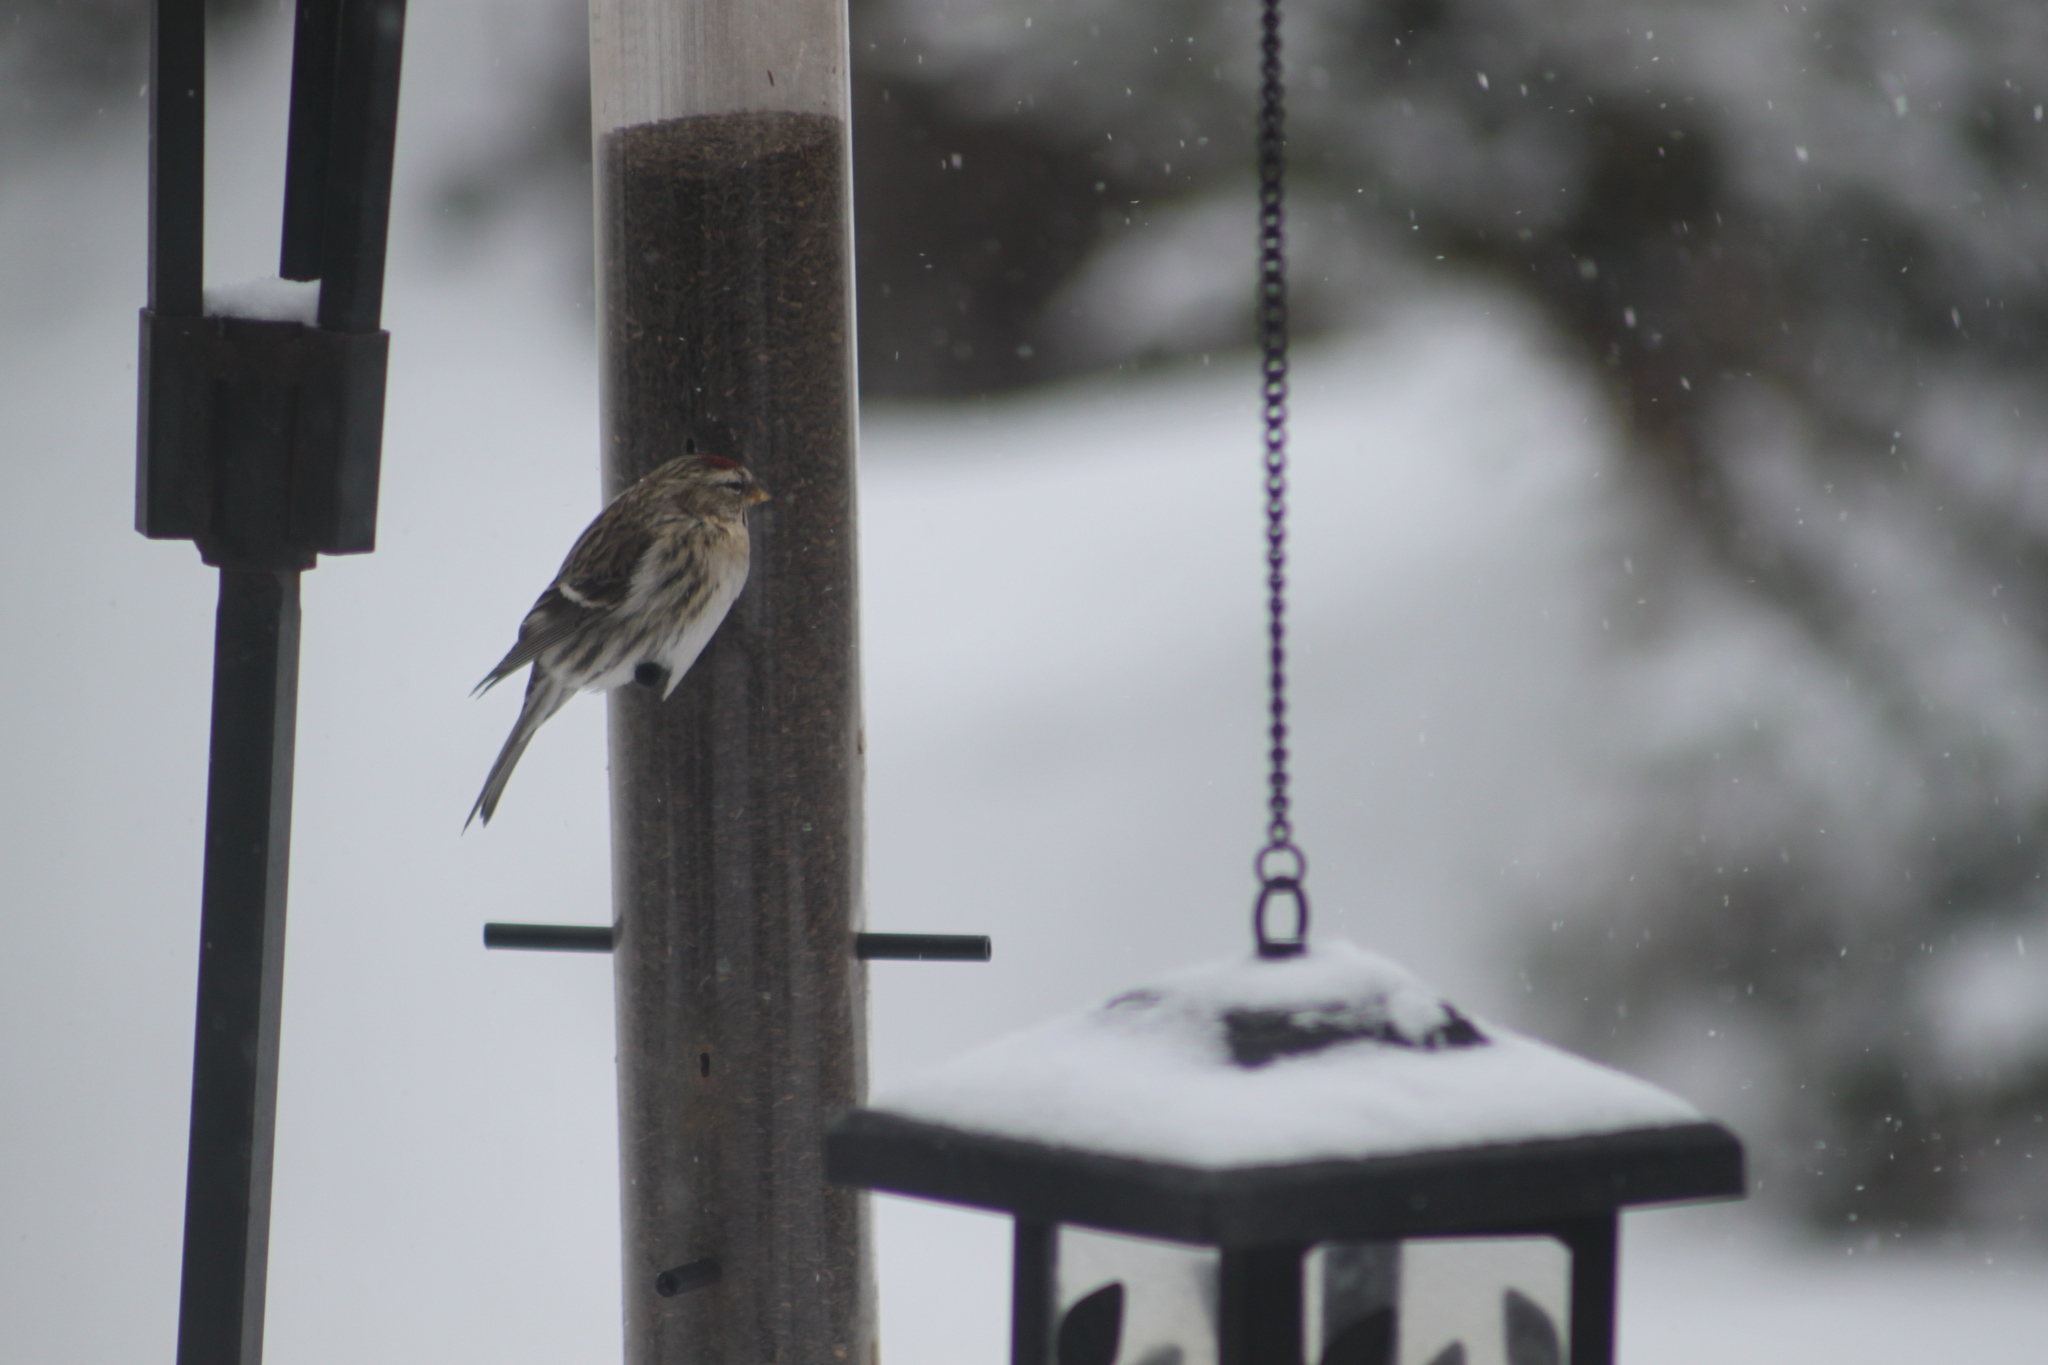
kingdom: Animalia
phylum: Chordata
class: Aves
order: Passeriformes
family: Fringillidae
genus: Acanthis
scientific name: Acanthis flammea
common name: Common redpoll
